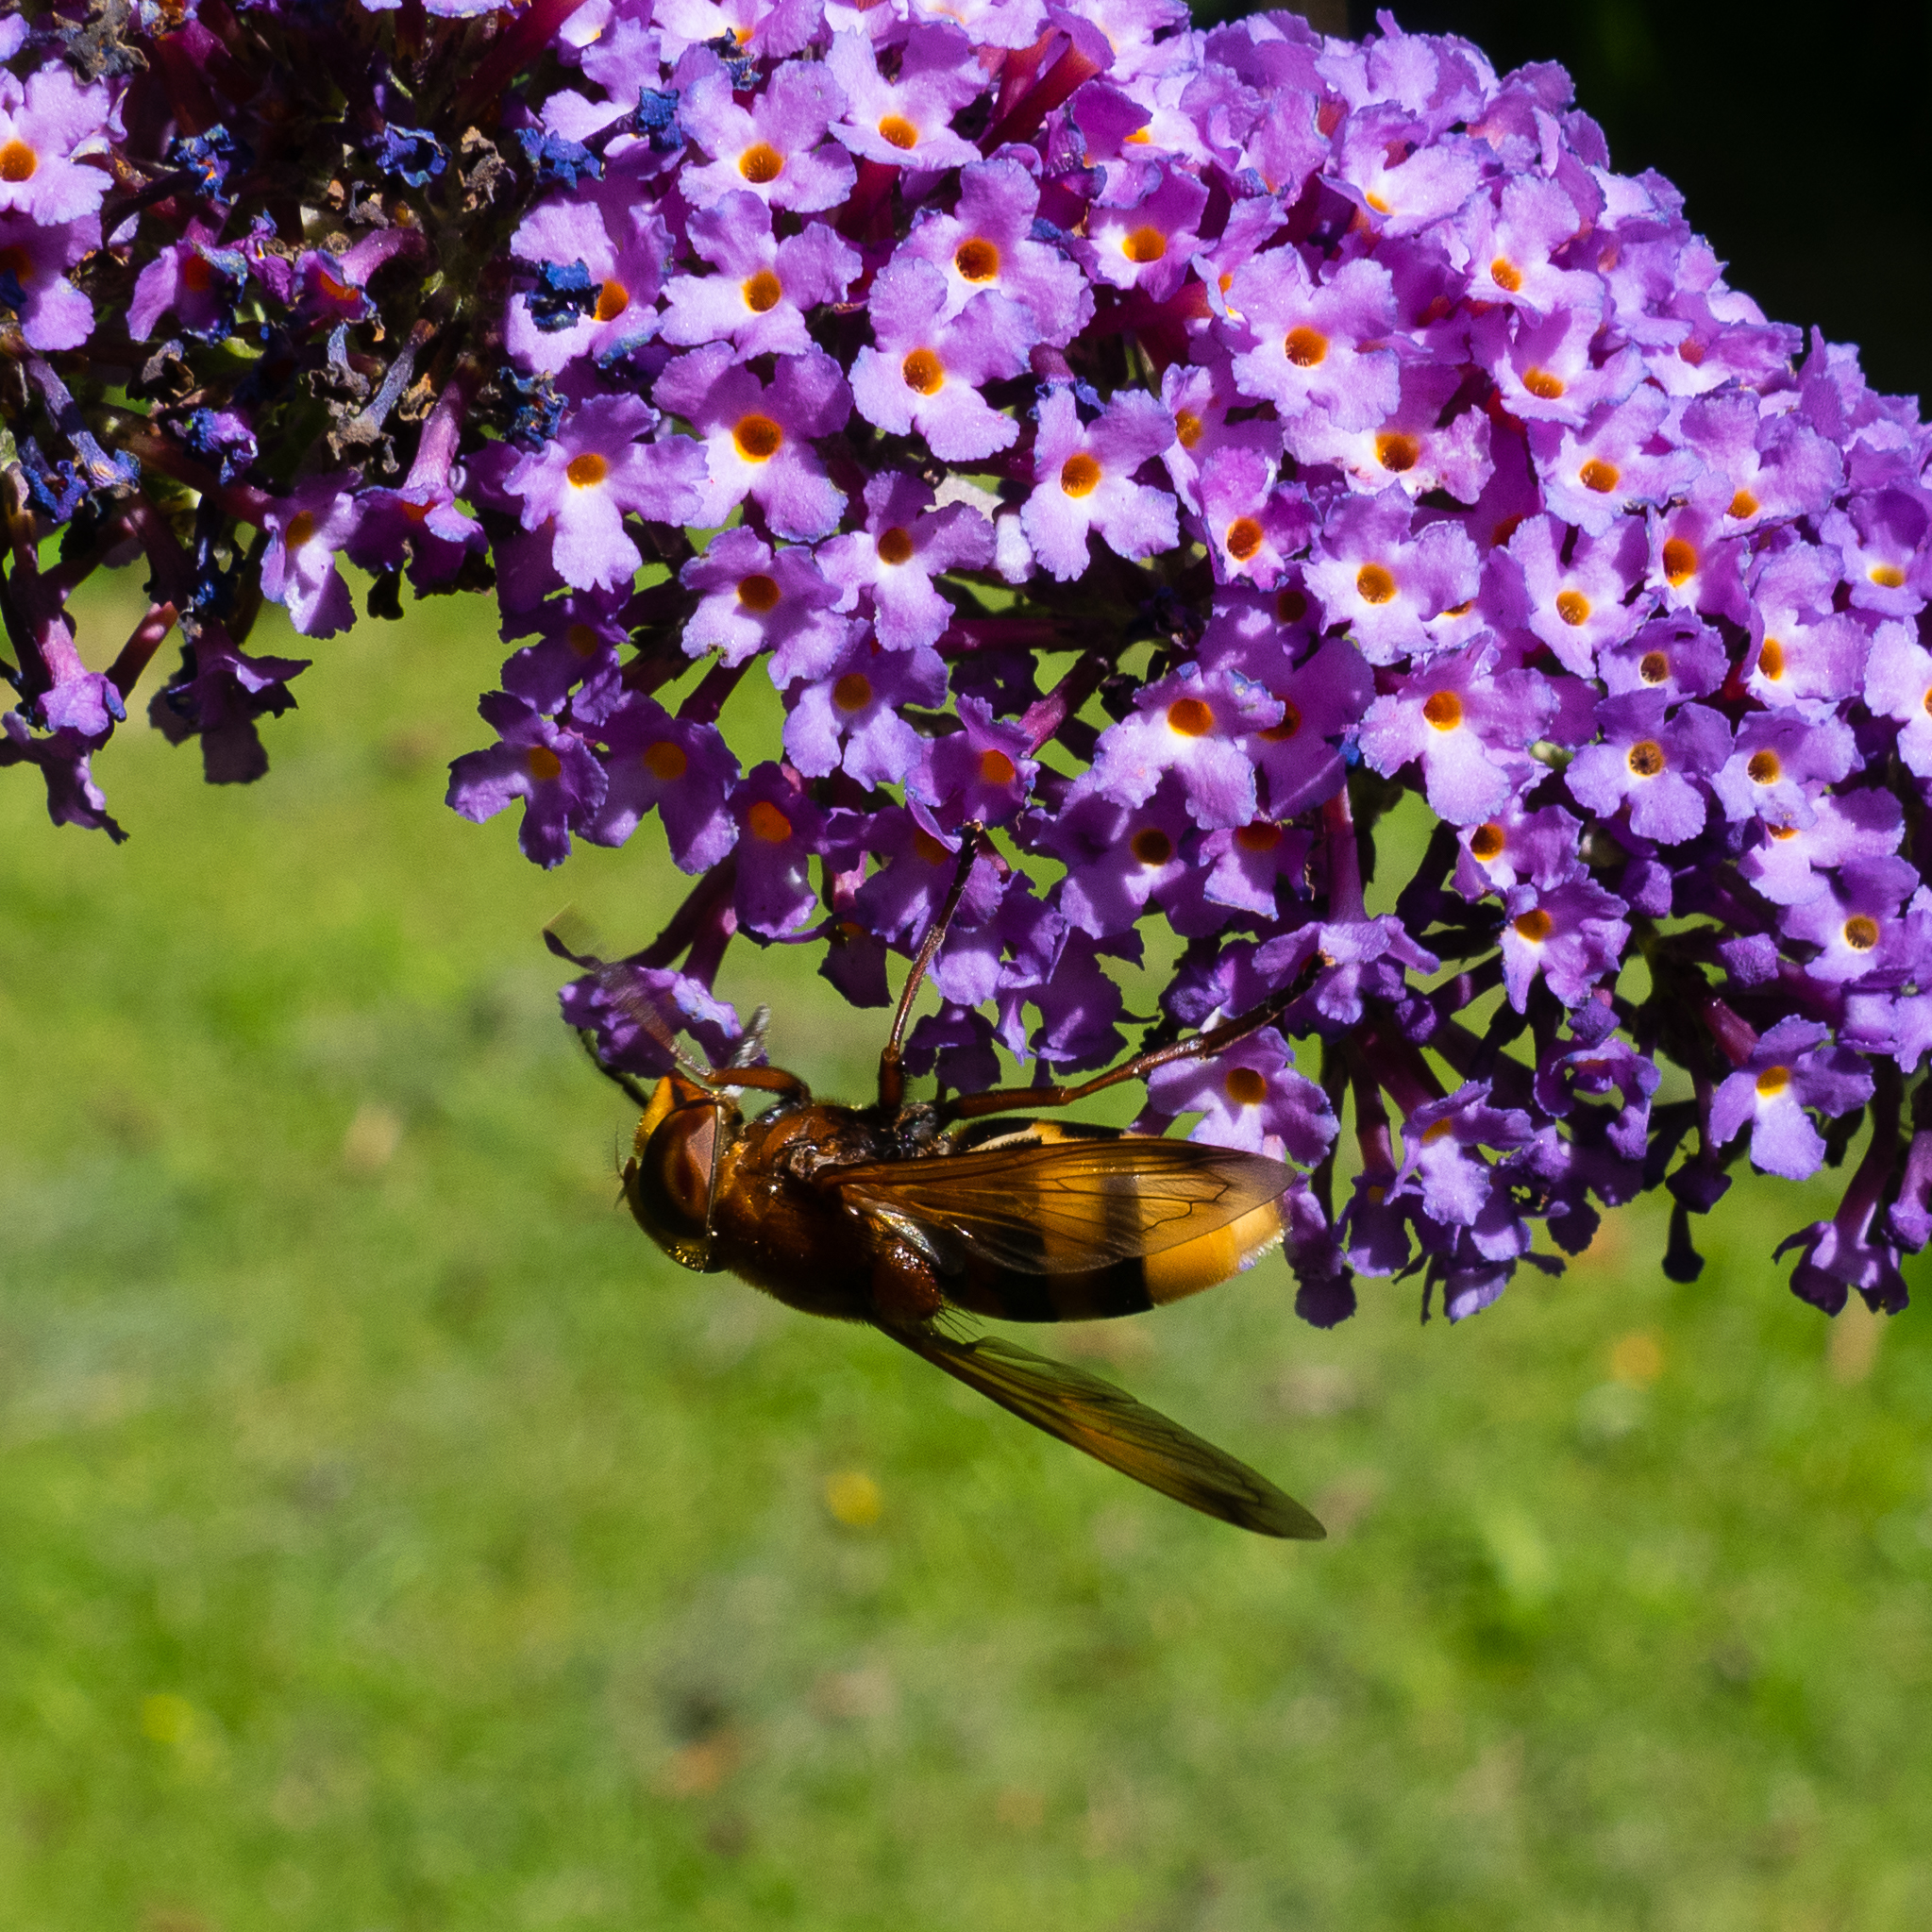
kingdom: Animalia
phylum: Arthropoda
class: Insecta
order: Diptera
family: Syrphidae
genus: Volucella
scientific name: Volucella zonaria
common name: Hornet hoverfly
